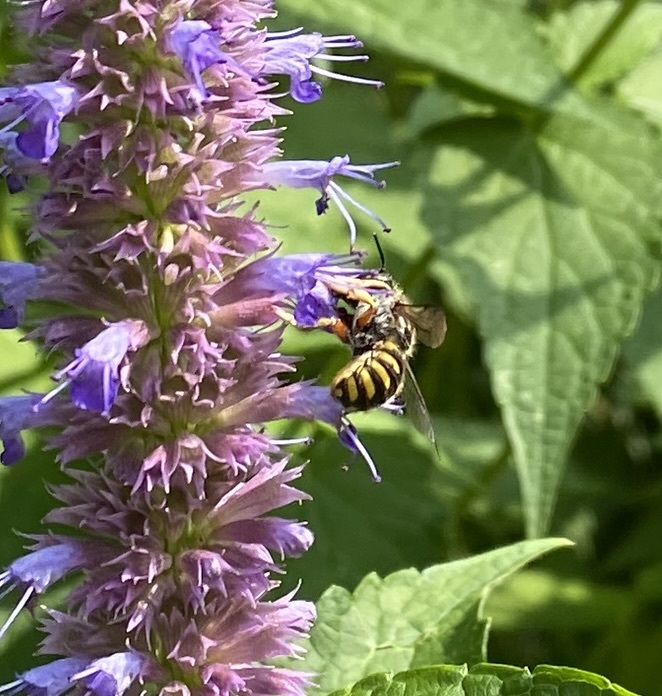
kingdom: Animalia
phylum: Arthropoda
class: Insecta
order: Hymenoptera
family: Megachilidae
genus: Anthidium
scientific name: Anthidium manicatum
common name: Wool carder bee
